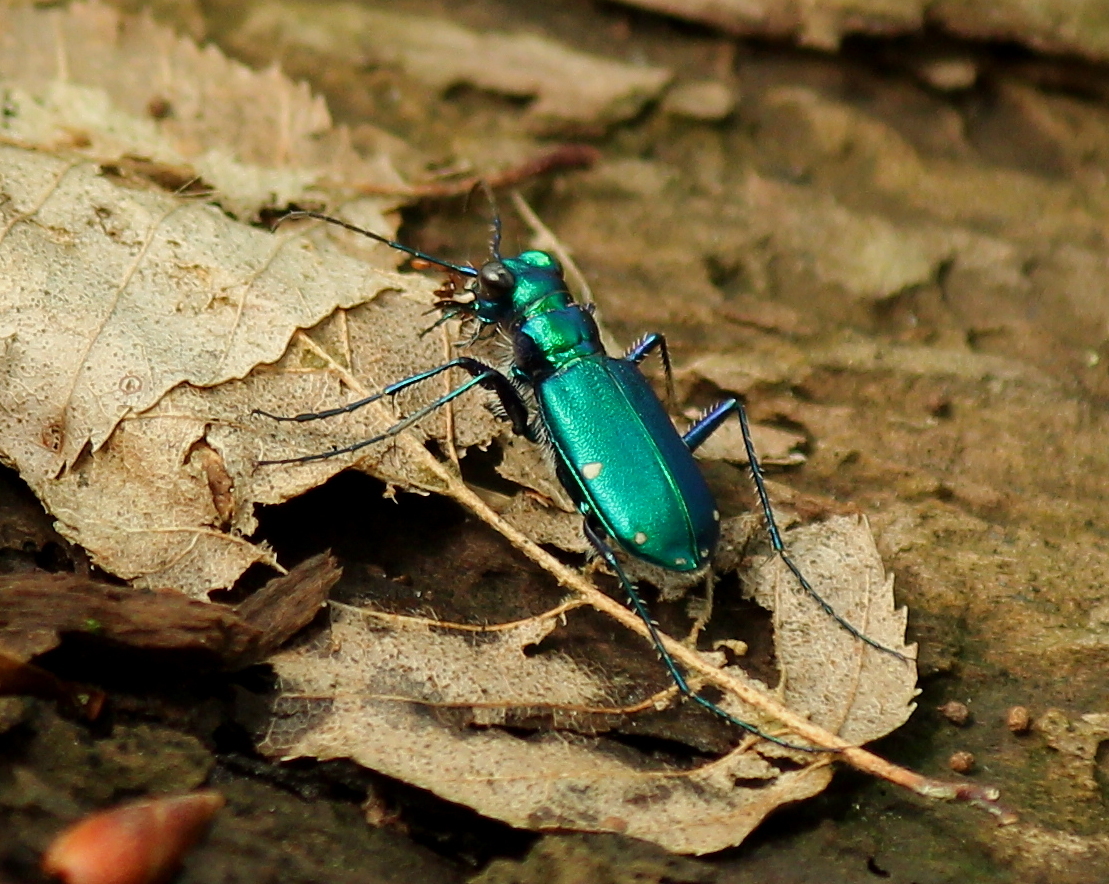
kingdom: Animalia
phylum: Arthropoda
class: Insecta
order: Coleoptera
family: Carabidae
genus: Cicindela
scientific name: Cicindela sexguttata
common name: Six-spotted tiger beetle
